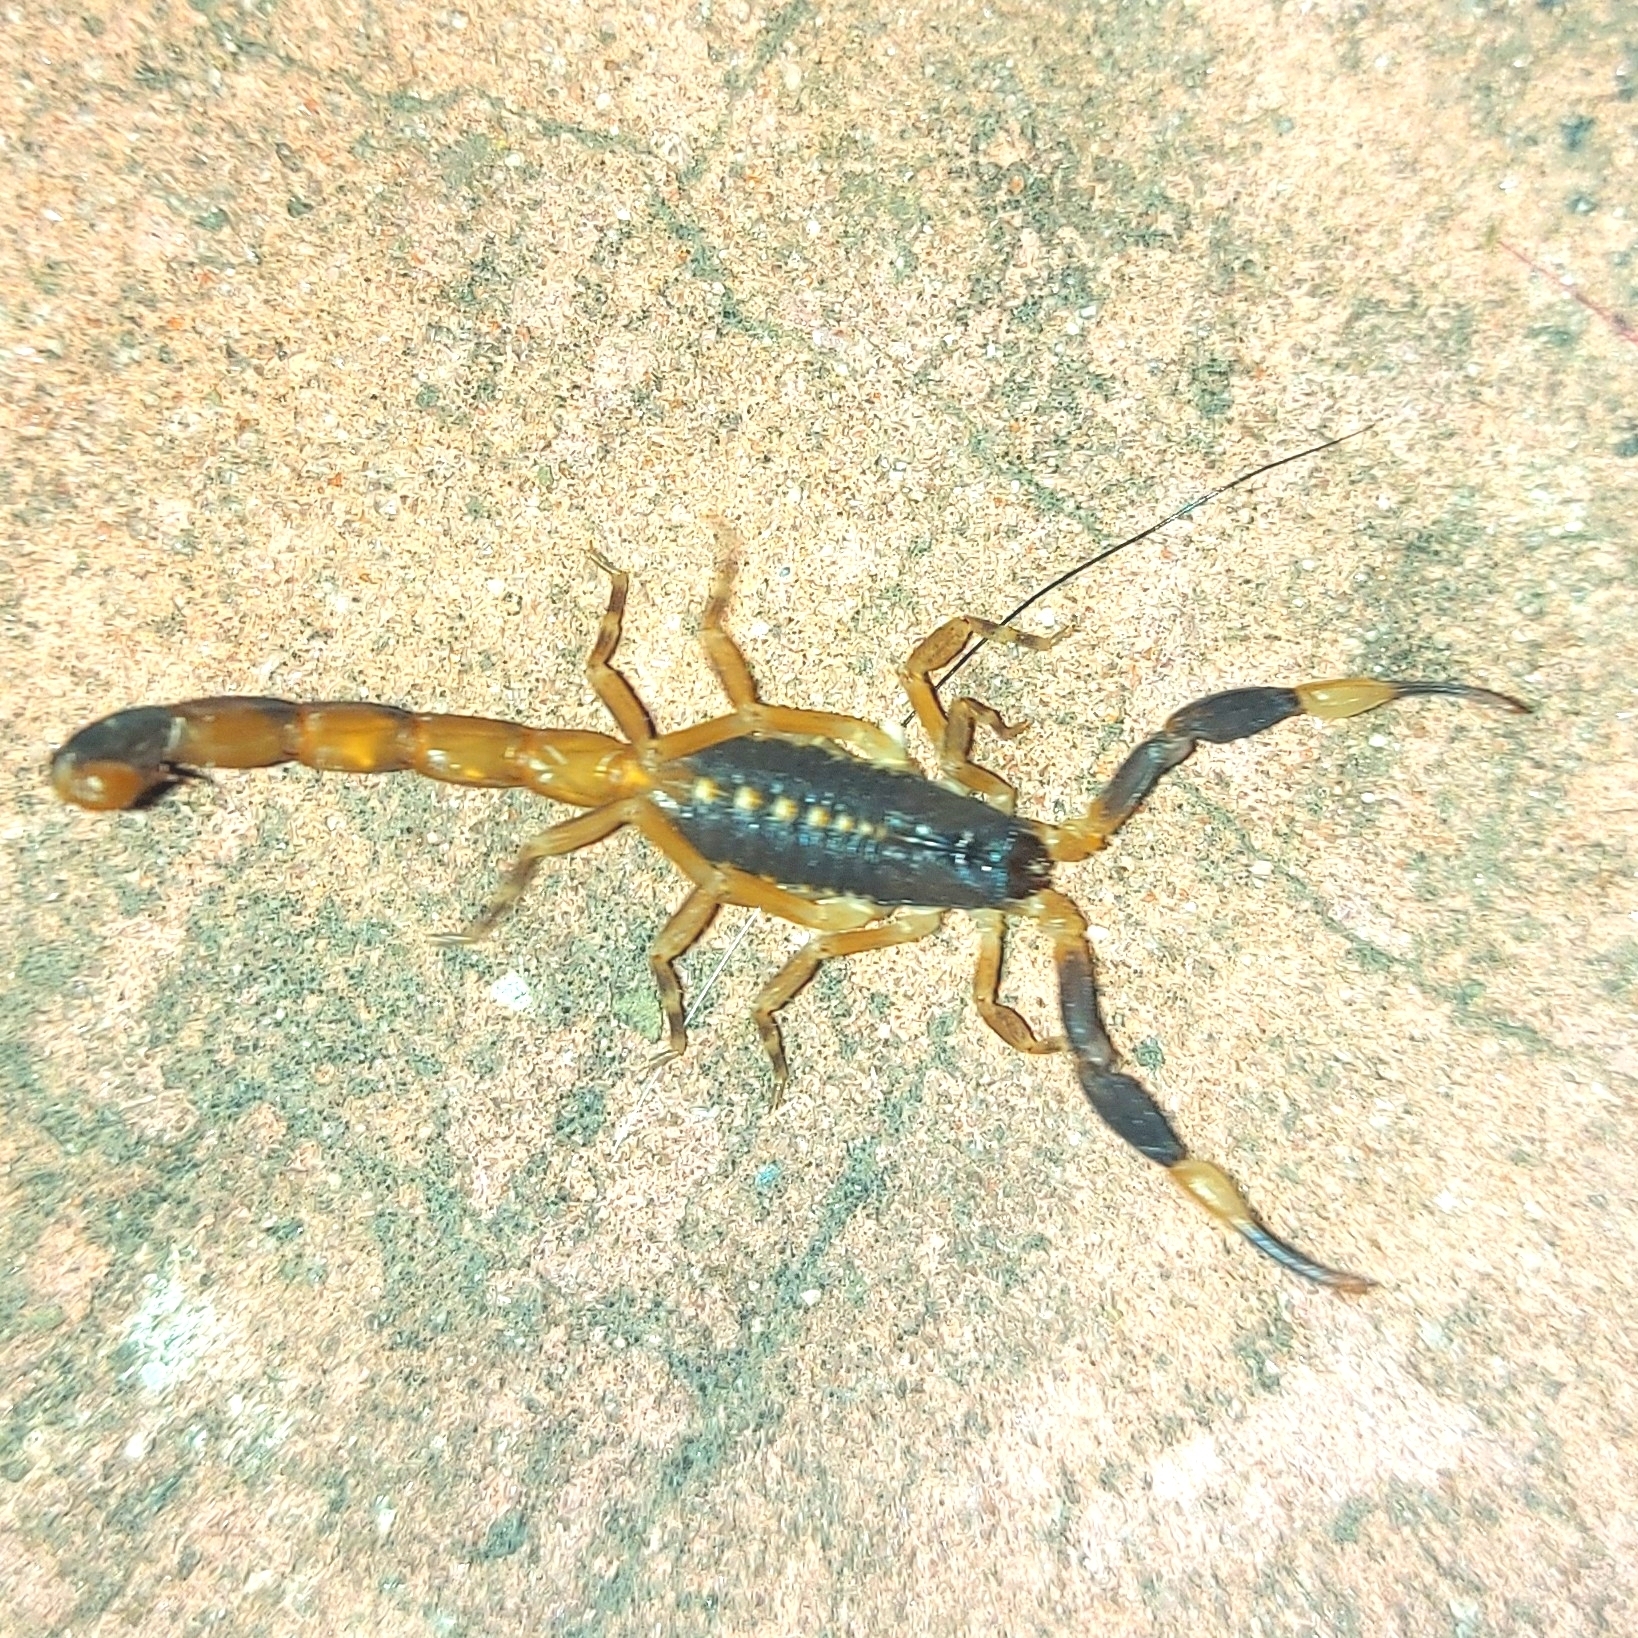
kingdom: Animalia
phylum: Arthropoda
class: Arachnida
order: Scorpiones
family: Buthidae
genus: Centruroides
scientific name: Centruroides flavopictus
